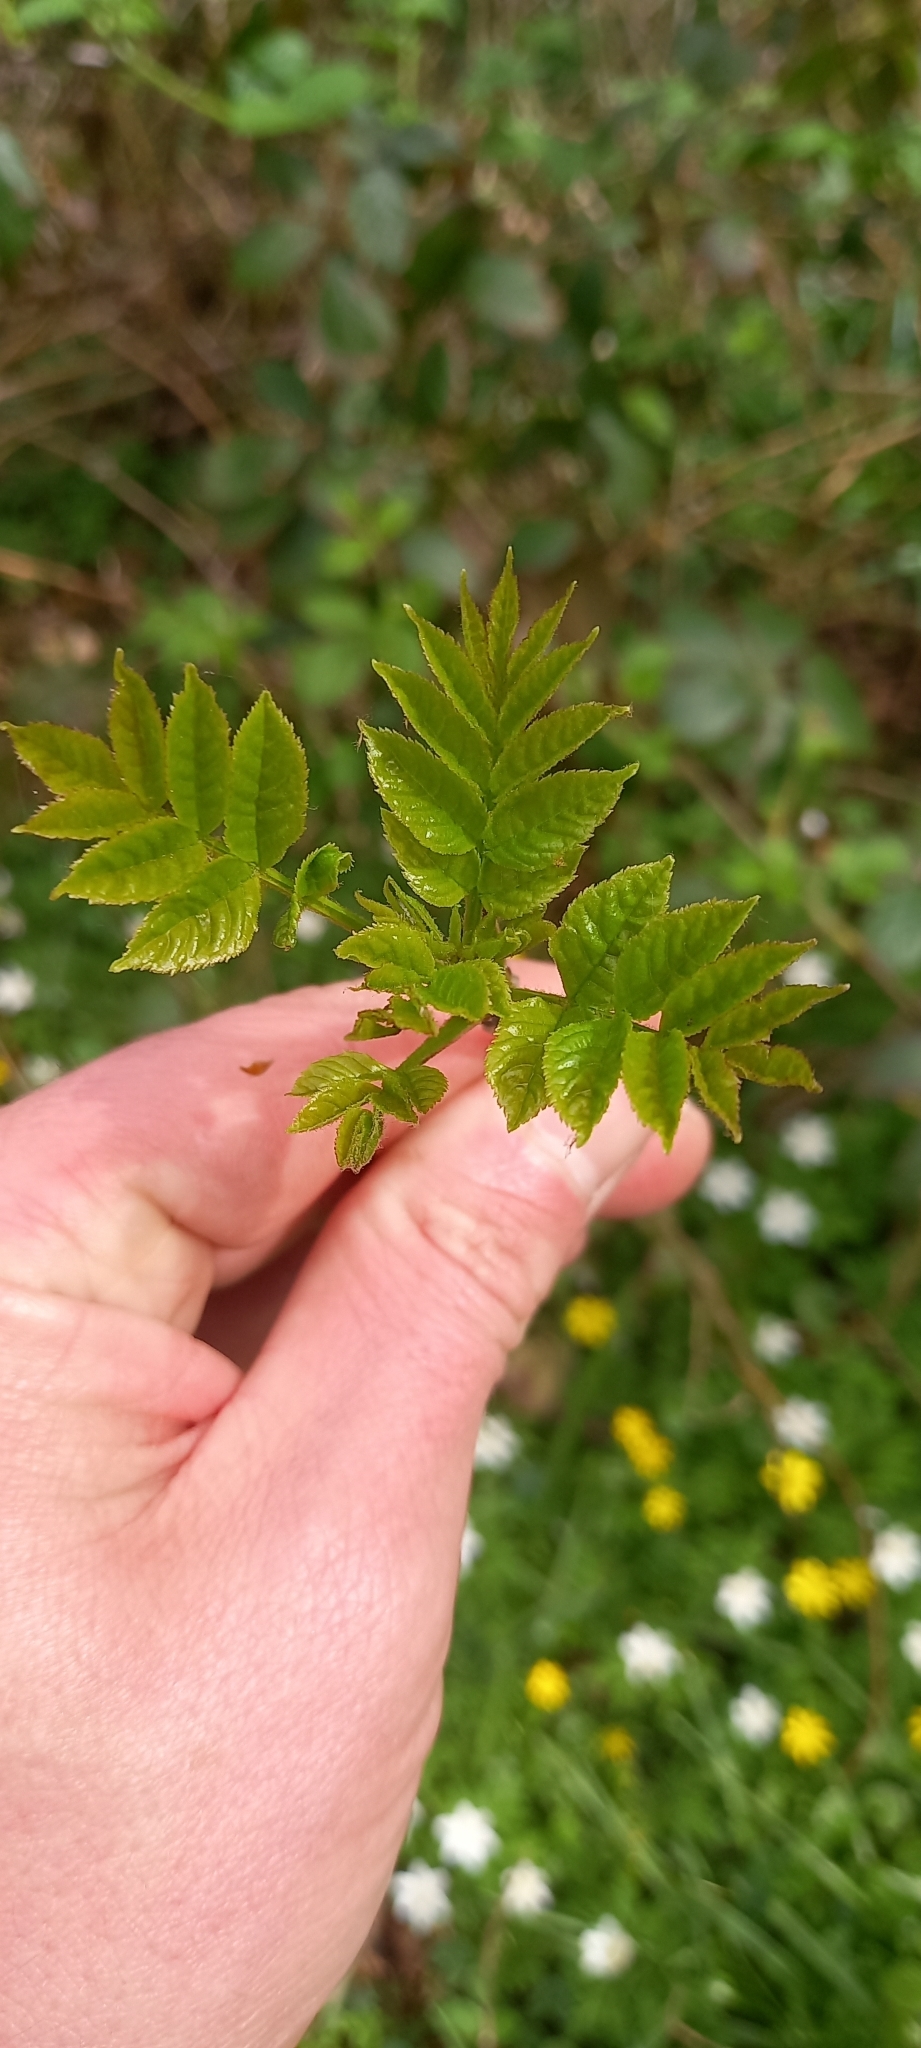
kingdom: Plantae
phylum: Tracheophyta
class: Magnoliopsida
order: Lamiales
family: Oleaceae
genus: Fraxinus
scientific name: Fraxinus excelsior
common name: European ash
